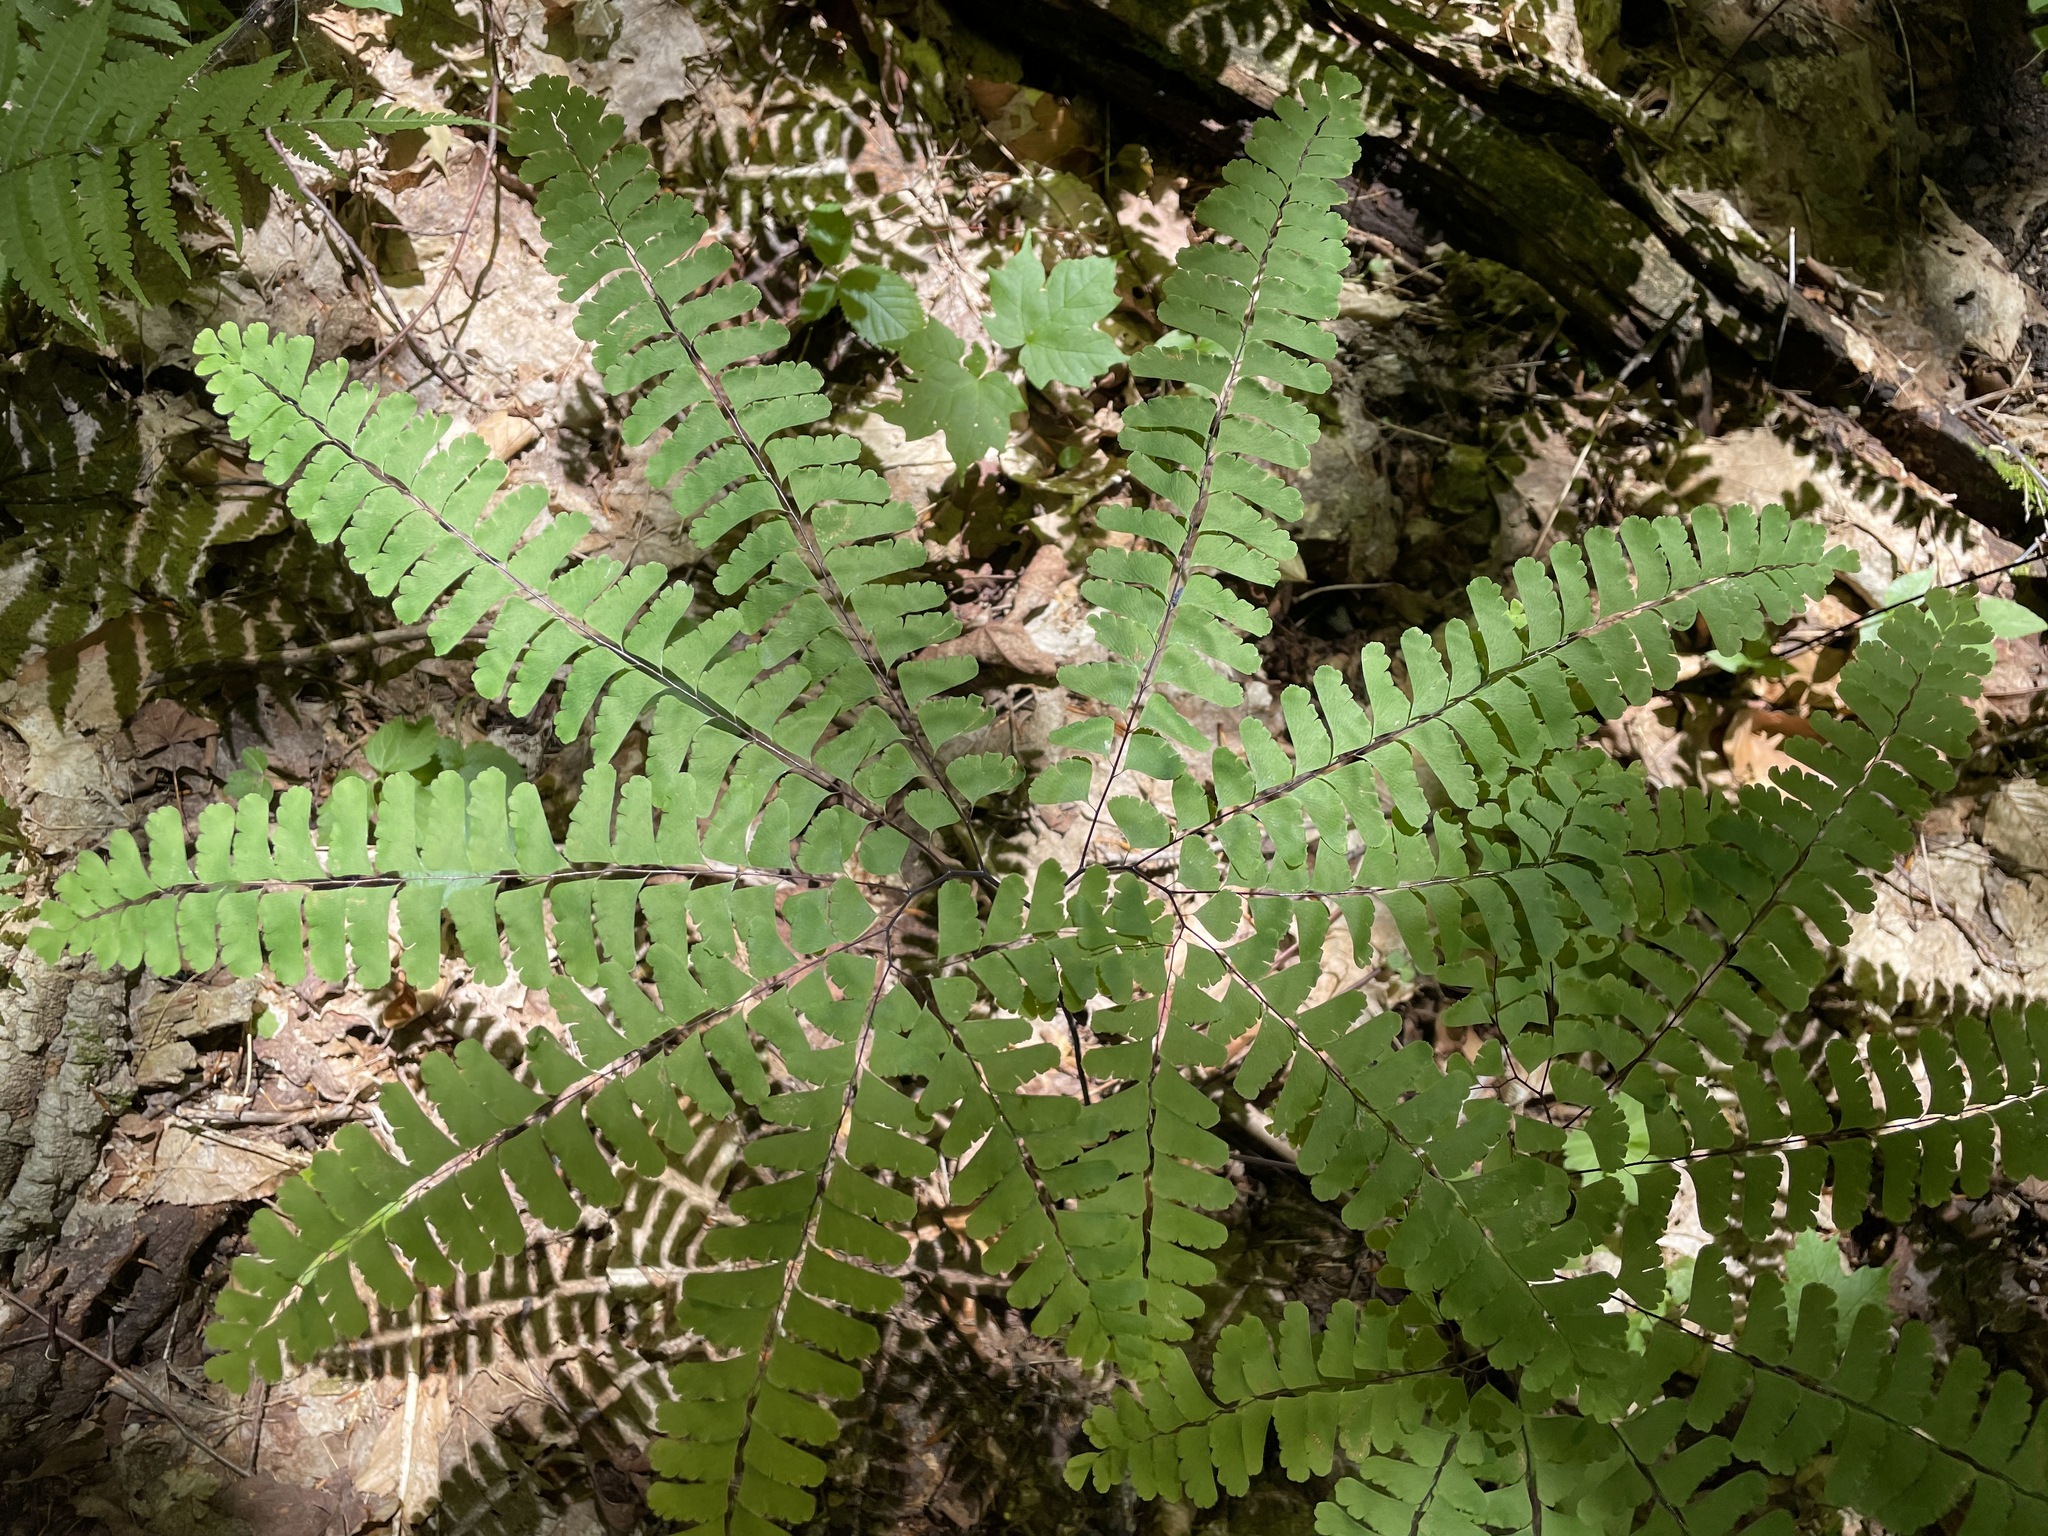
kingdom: Plantae
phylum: Tracheophyta
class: Polypodiopsida
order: Polypodiales
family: Pteridaceae
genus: Adiantum
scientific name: Adiantum pedatum
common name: Five-finger fern
